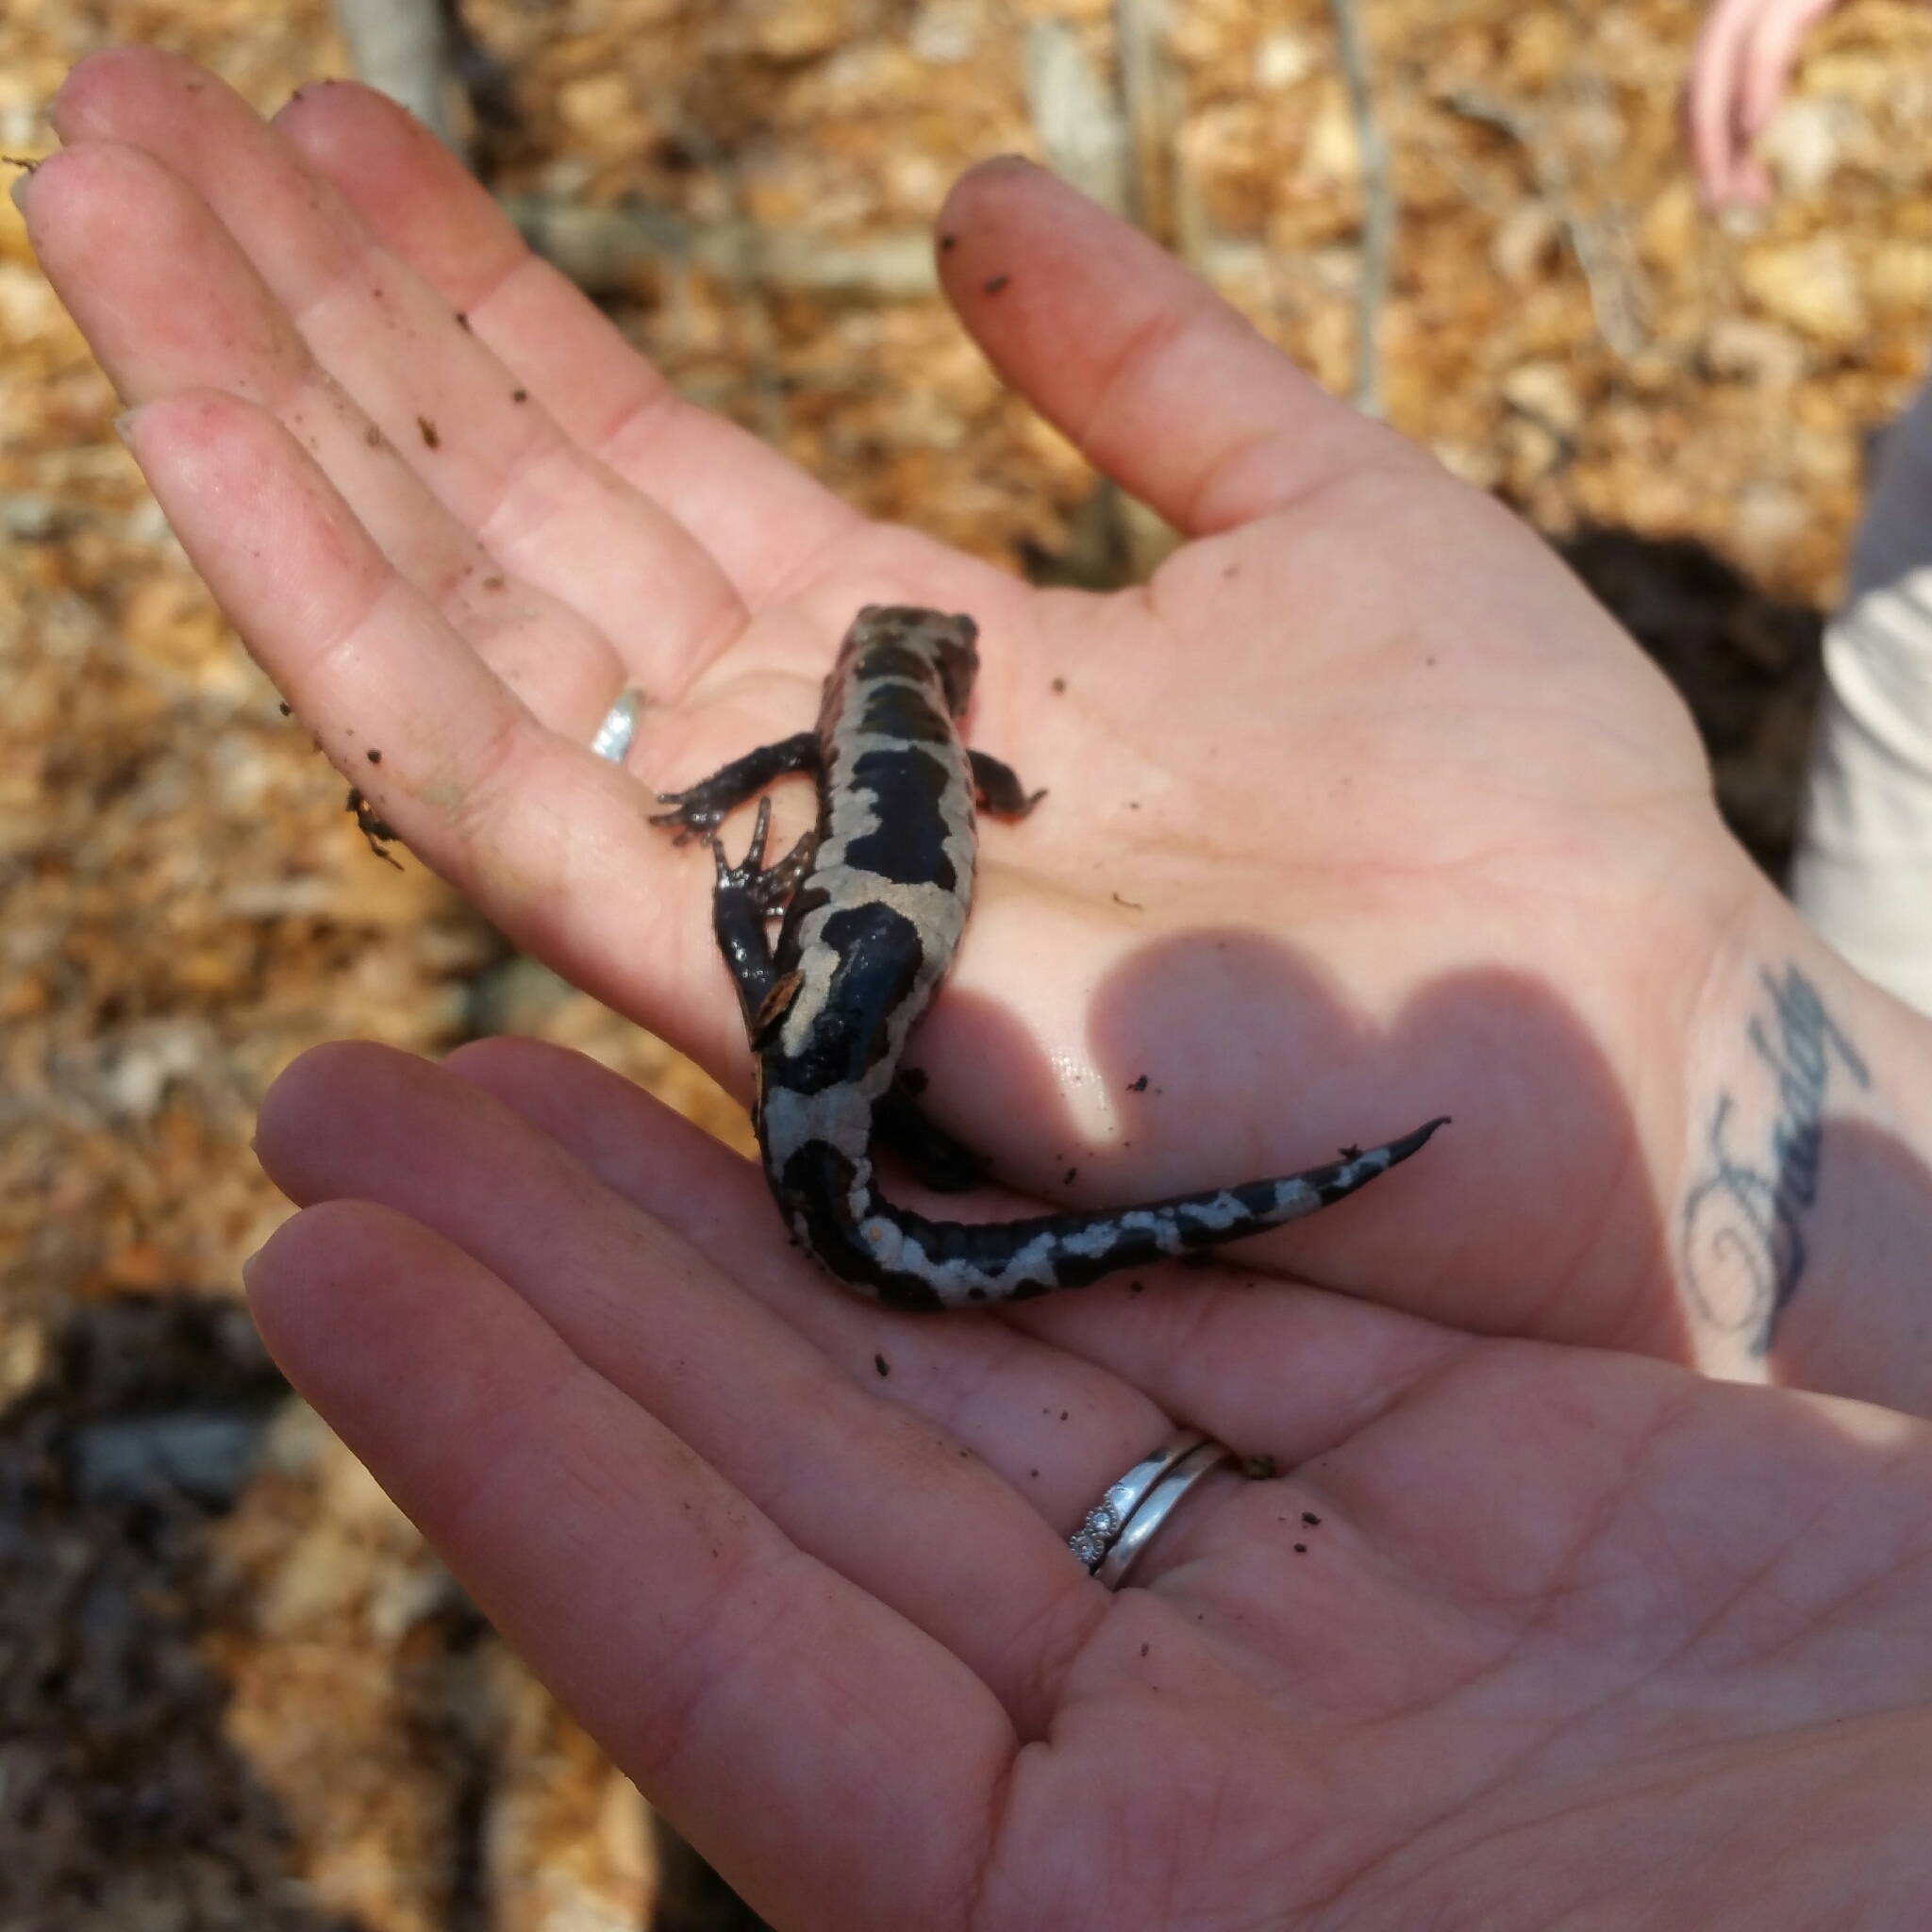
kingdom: Animalia
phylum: Chordata
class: Amphibia
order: Caudata
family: Ambystomatidae
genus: Ambystoma
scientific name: Ambystoma opacum
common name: Marbled salamander
